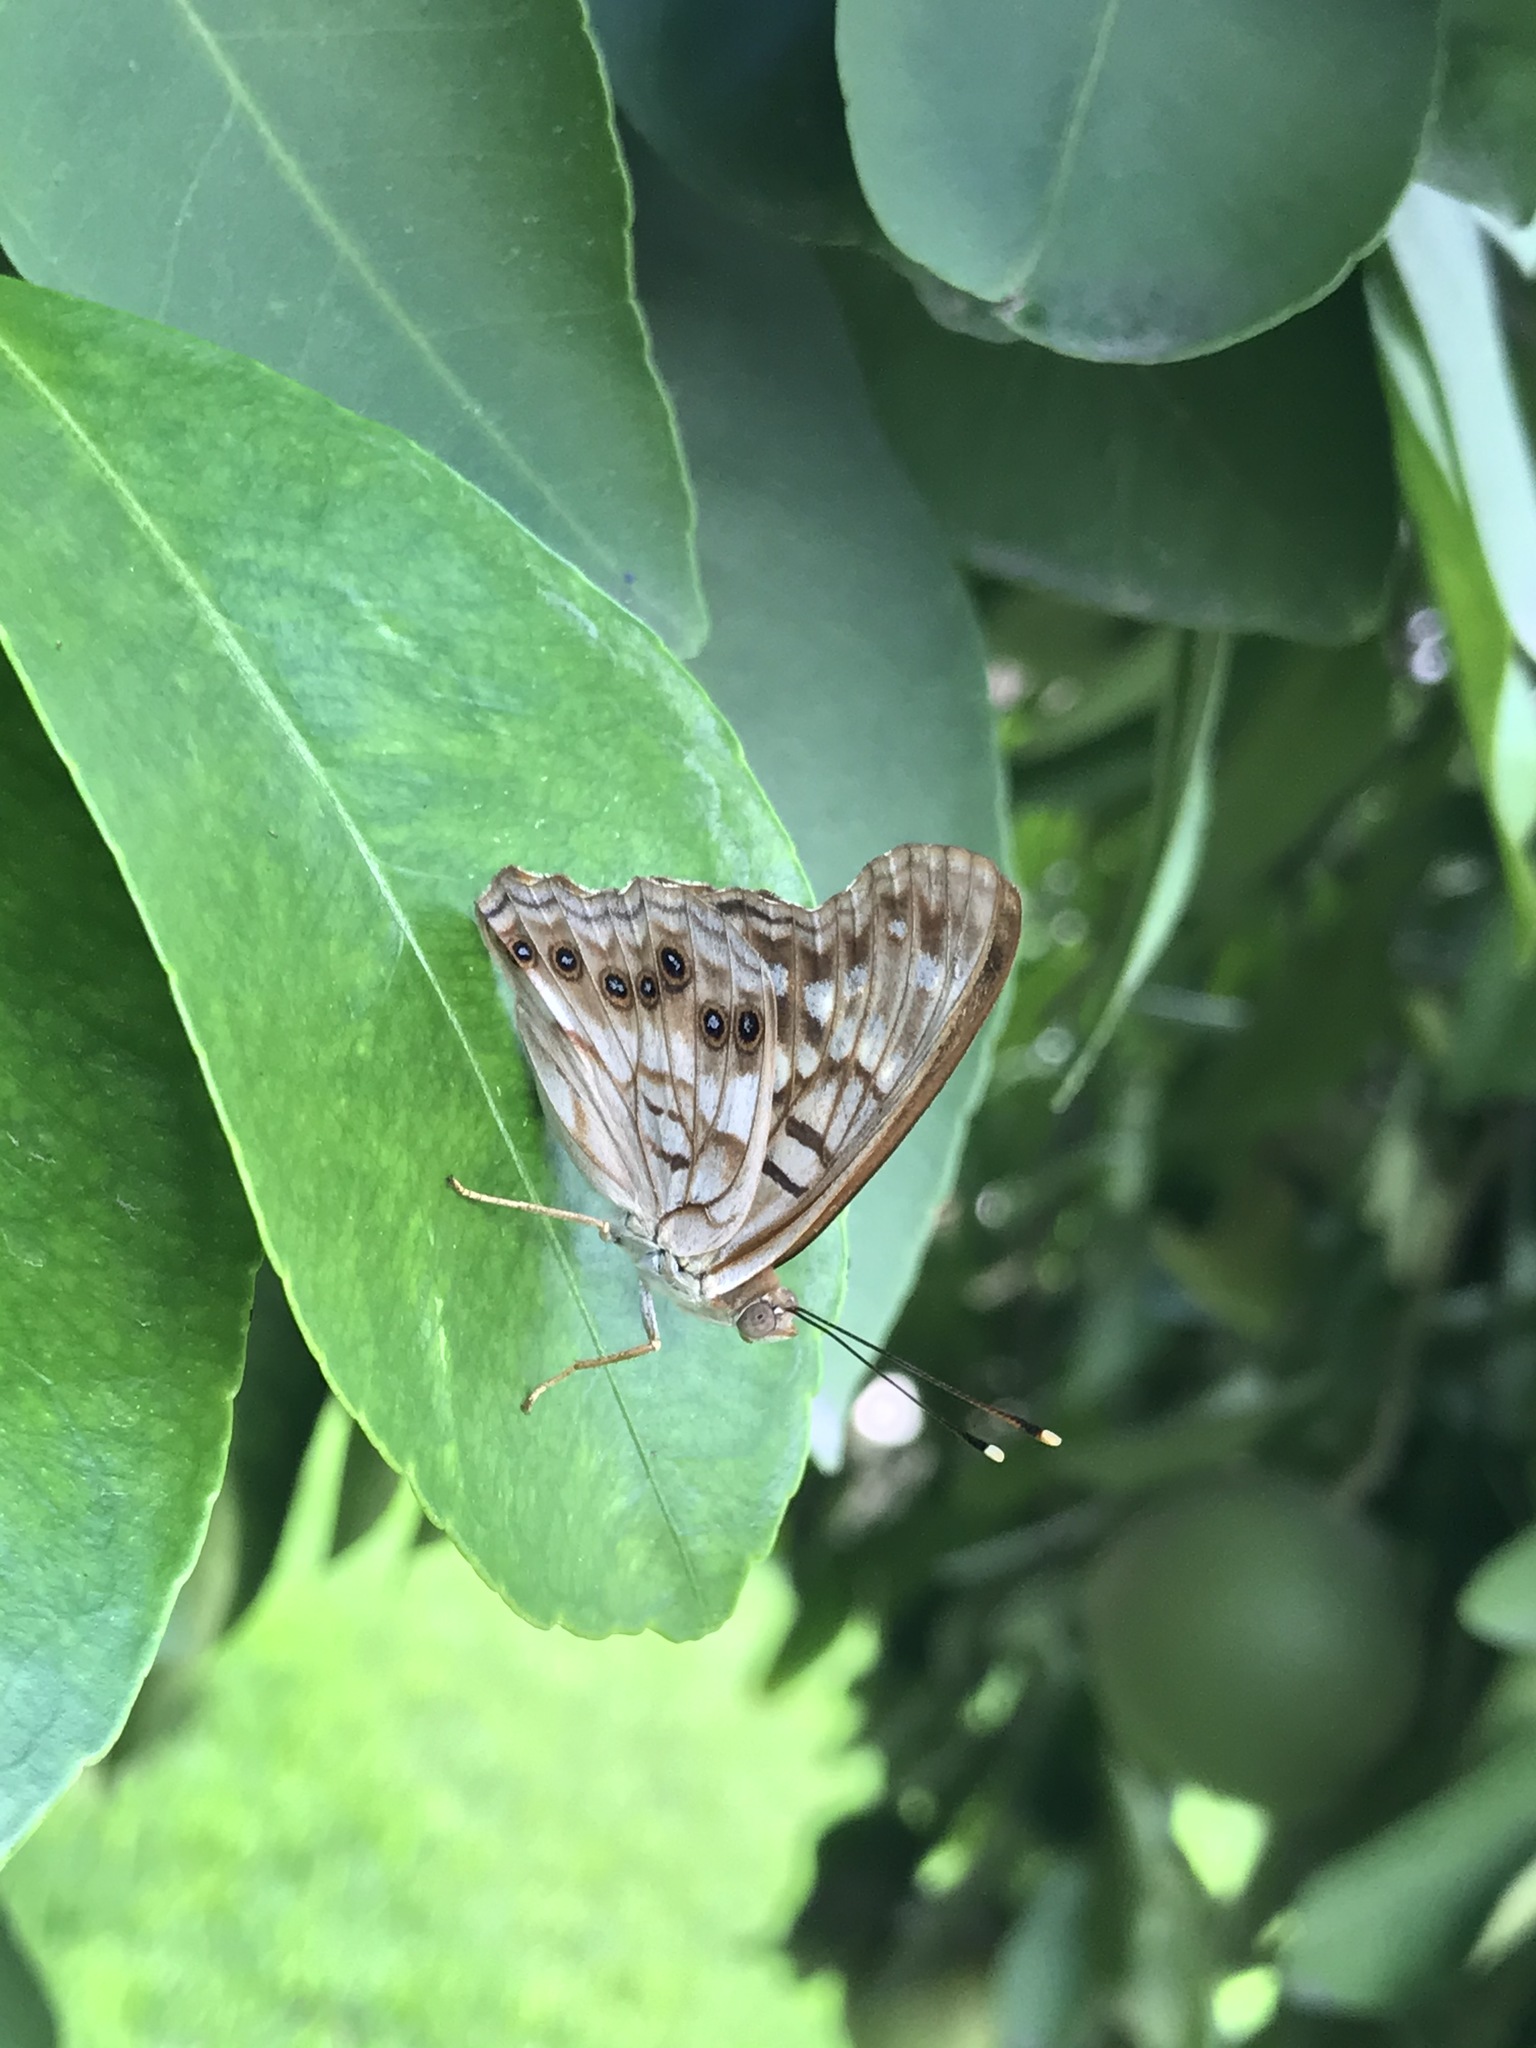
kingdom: Animalia
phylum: Arthropoda
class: Insecta
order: Lepidoptera
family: Nymphalidae
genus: Asterocampa
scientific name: Asterocampa clyton
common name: Tawny emperor
